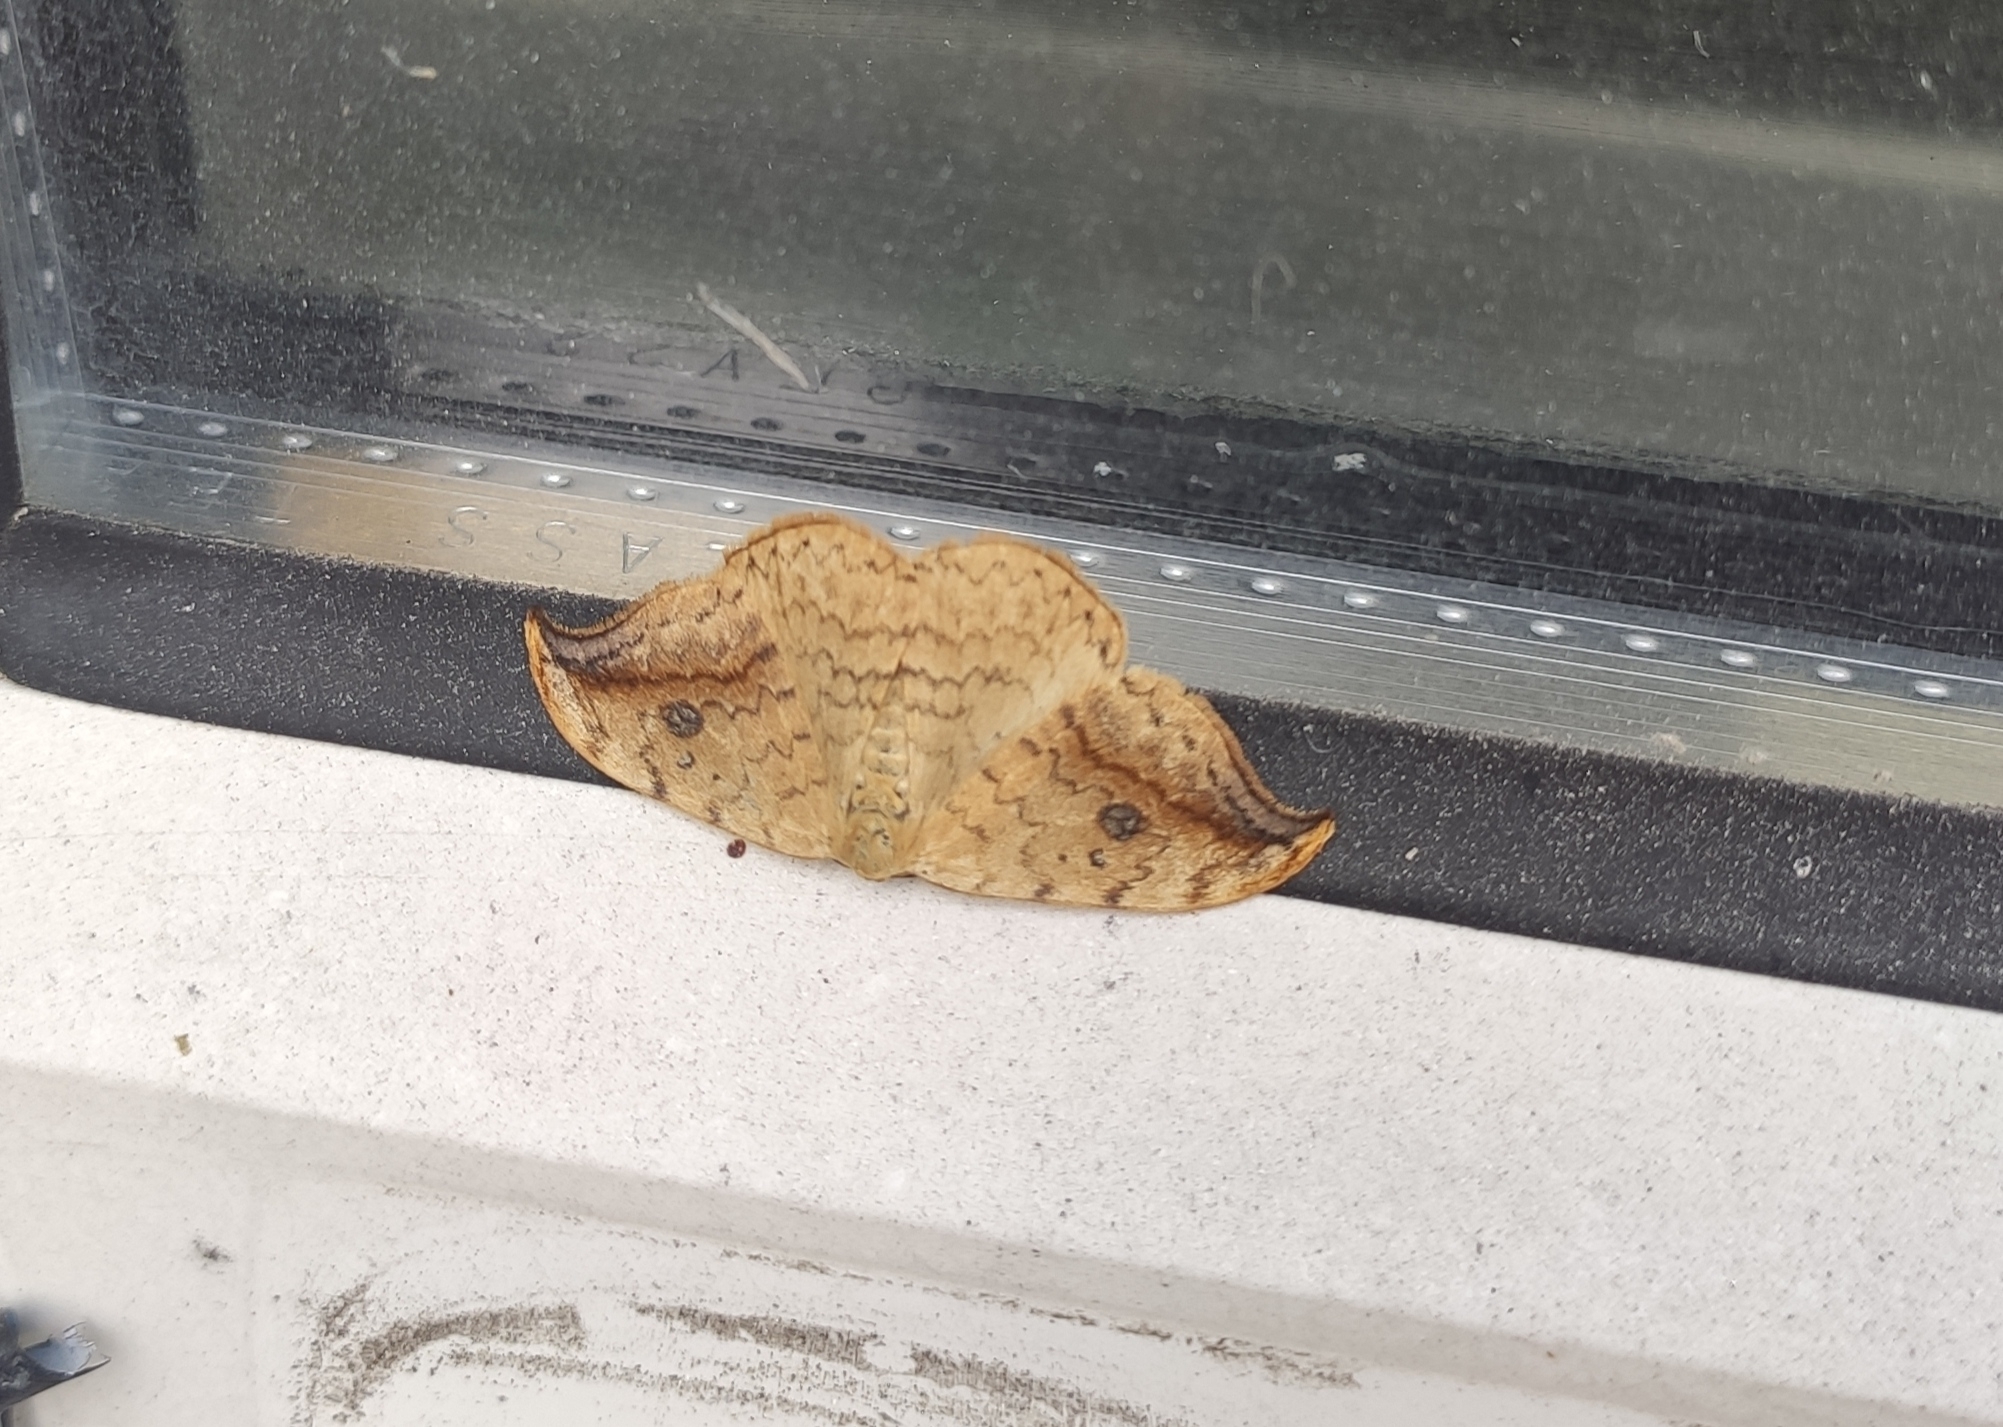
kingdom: Animalia
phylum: Arthropoda
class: Insecta
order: Lepidoptera
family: Drepanidae
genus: Drepana
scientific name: Drepana falcataria
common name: Pebble hook-tip
